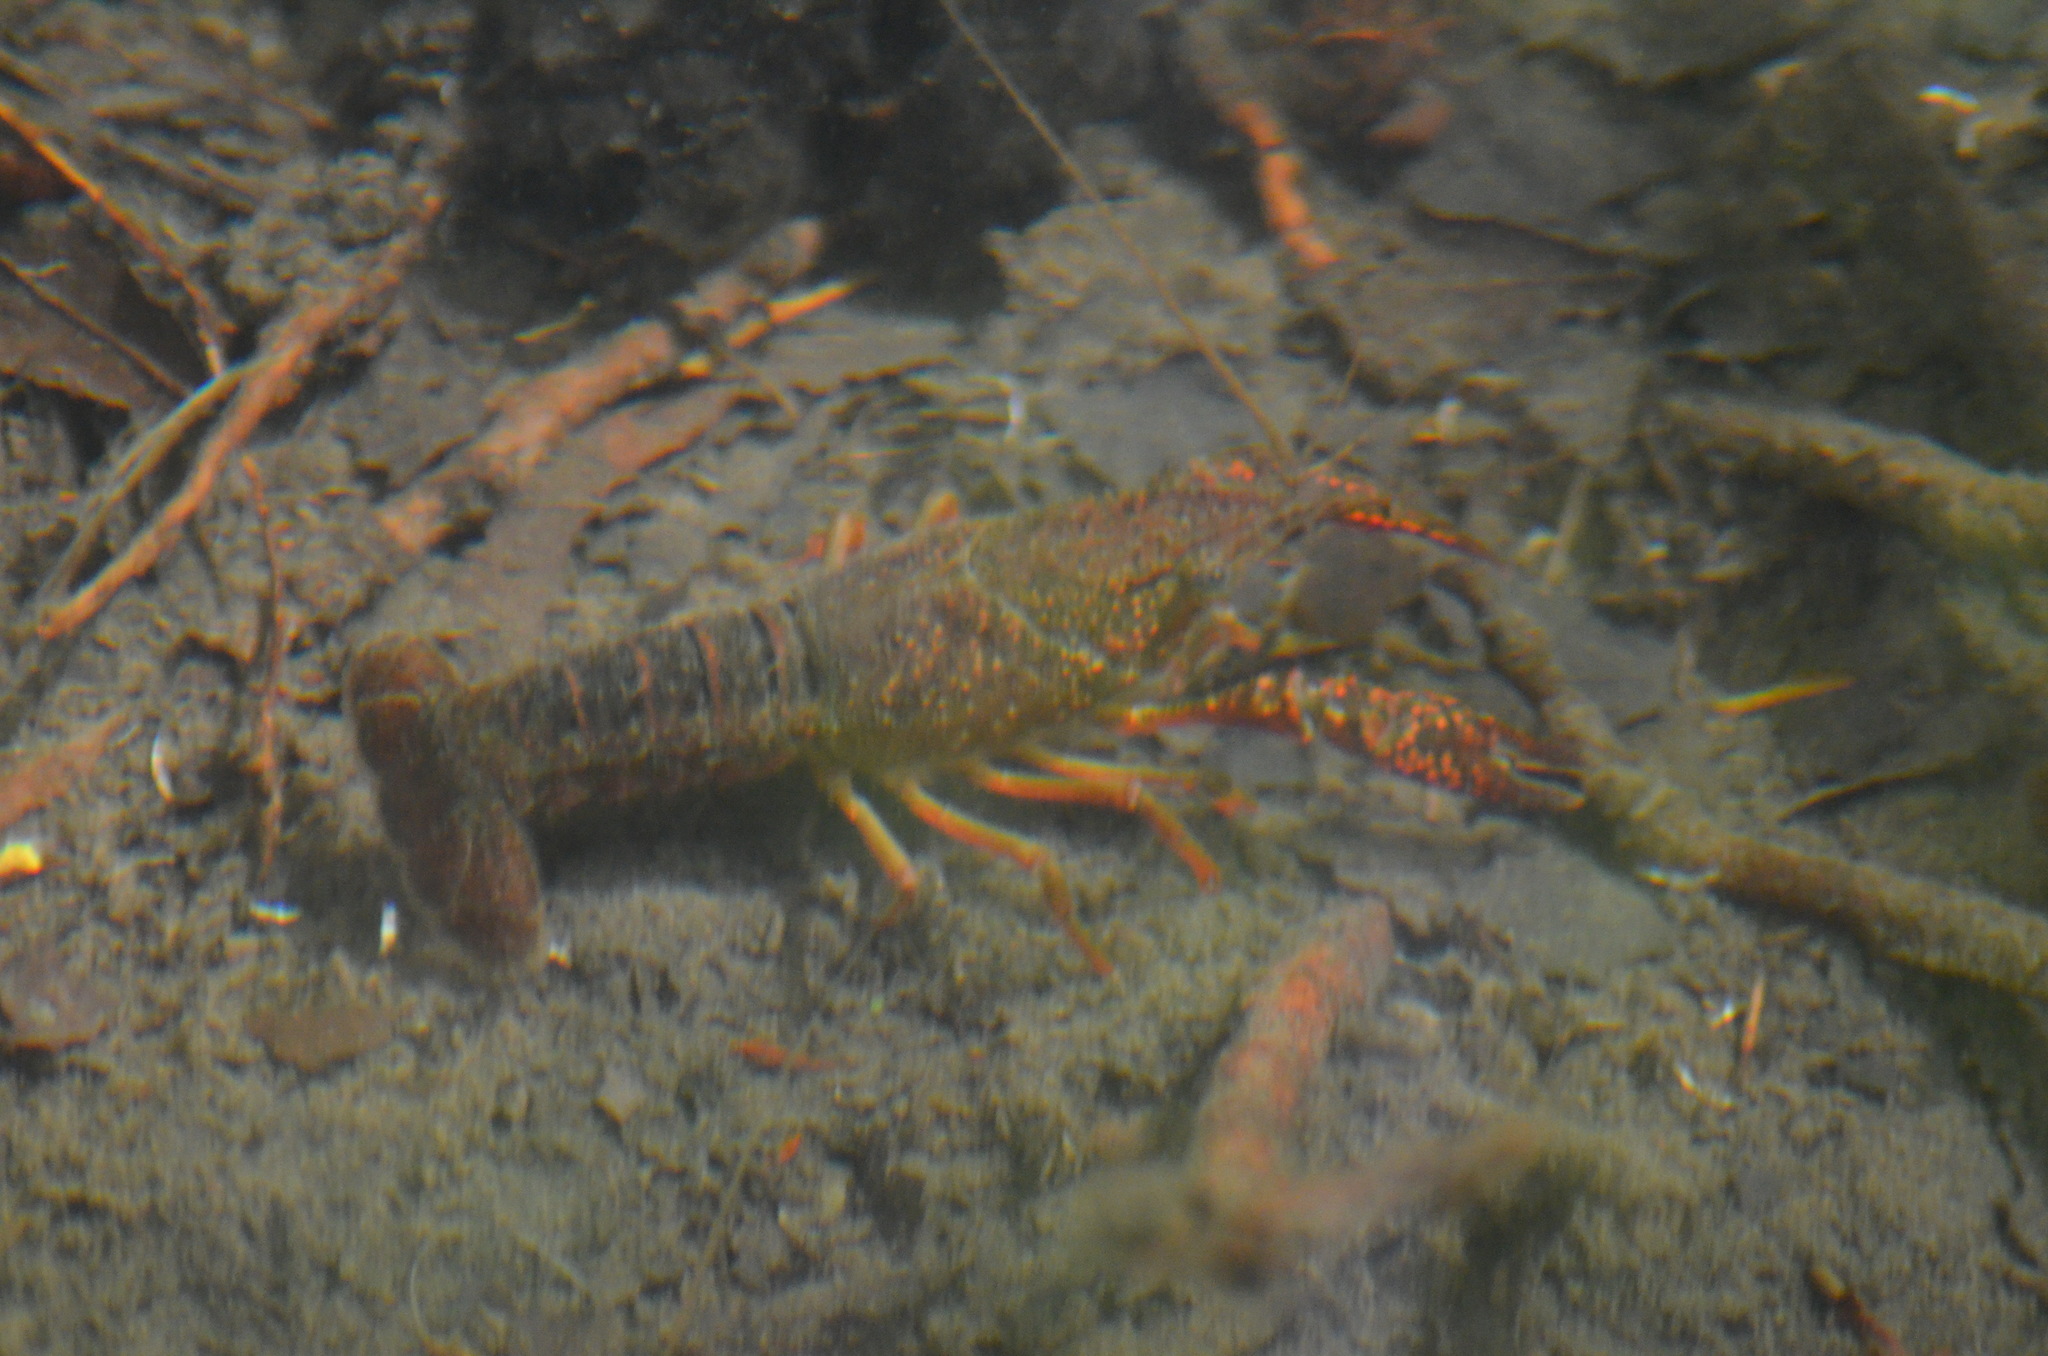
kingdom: Animalia
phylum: Arthropoda
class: Malacostraca
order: Decapoda
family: Cambaridae
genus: Procambarus
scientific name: Procambarus clarkii
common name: Red swamp crayfish
